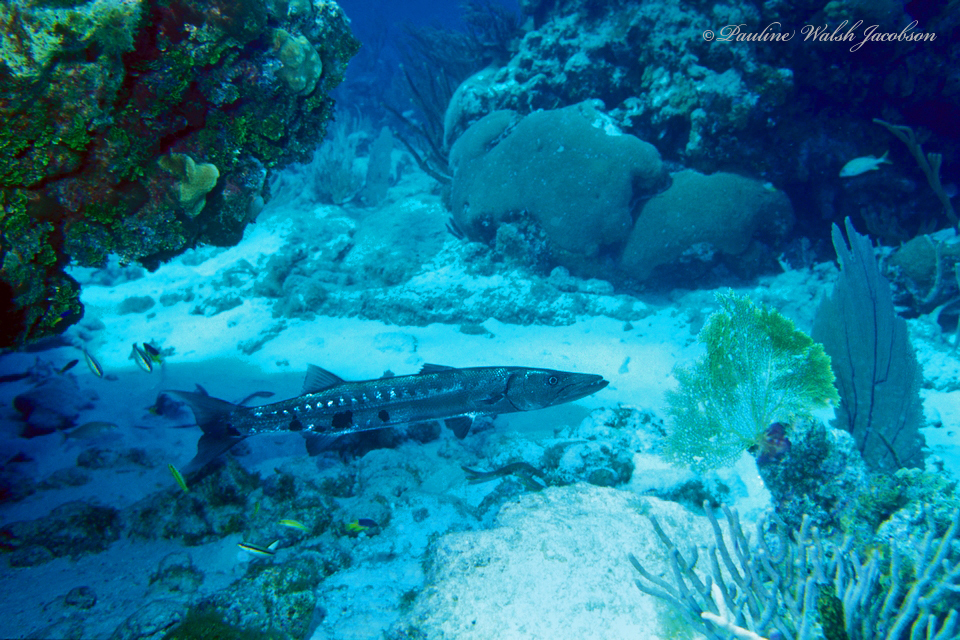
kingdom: Animalia
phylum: Chordata
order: Perciformes
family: Sphyraenidae
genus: Sphyraena
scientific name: Sphyraena barracuda
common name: Great barracuda
